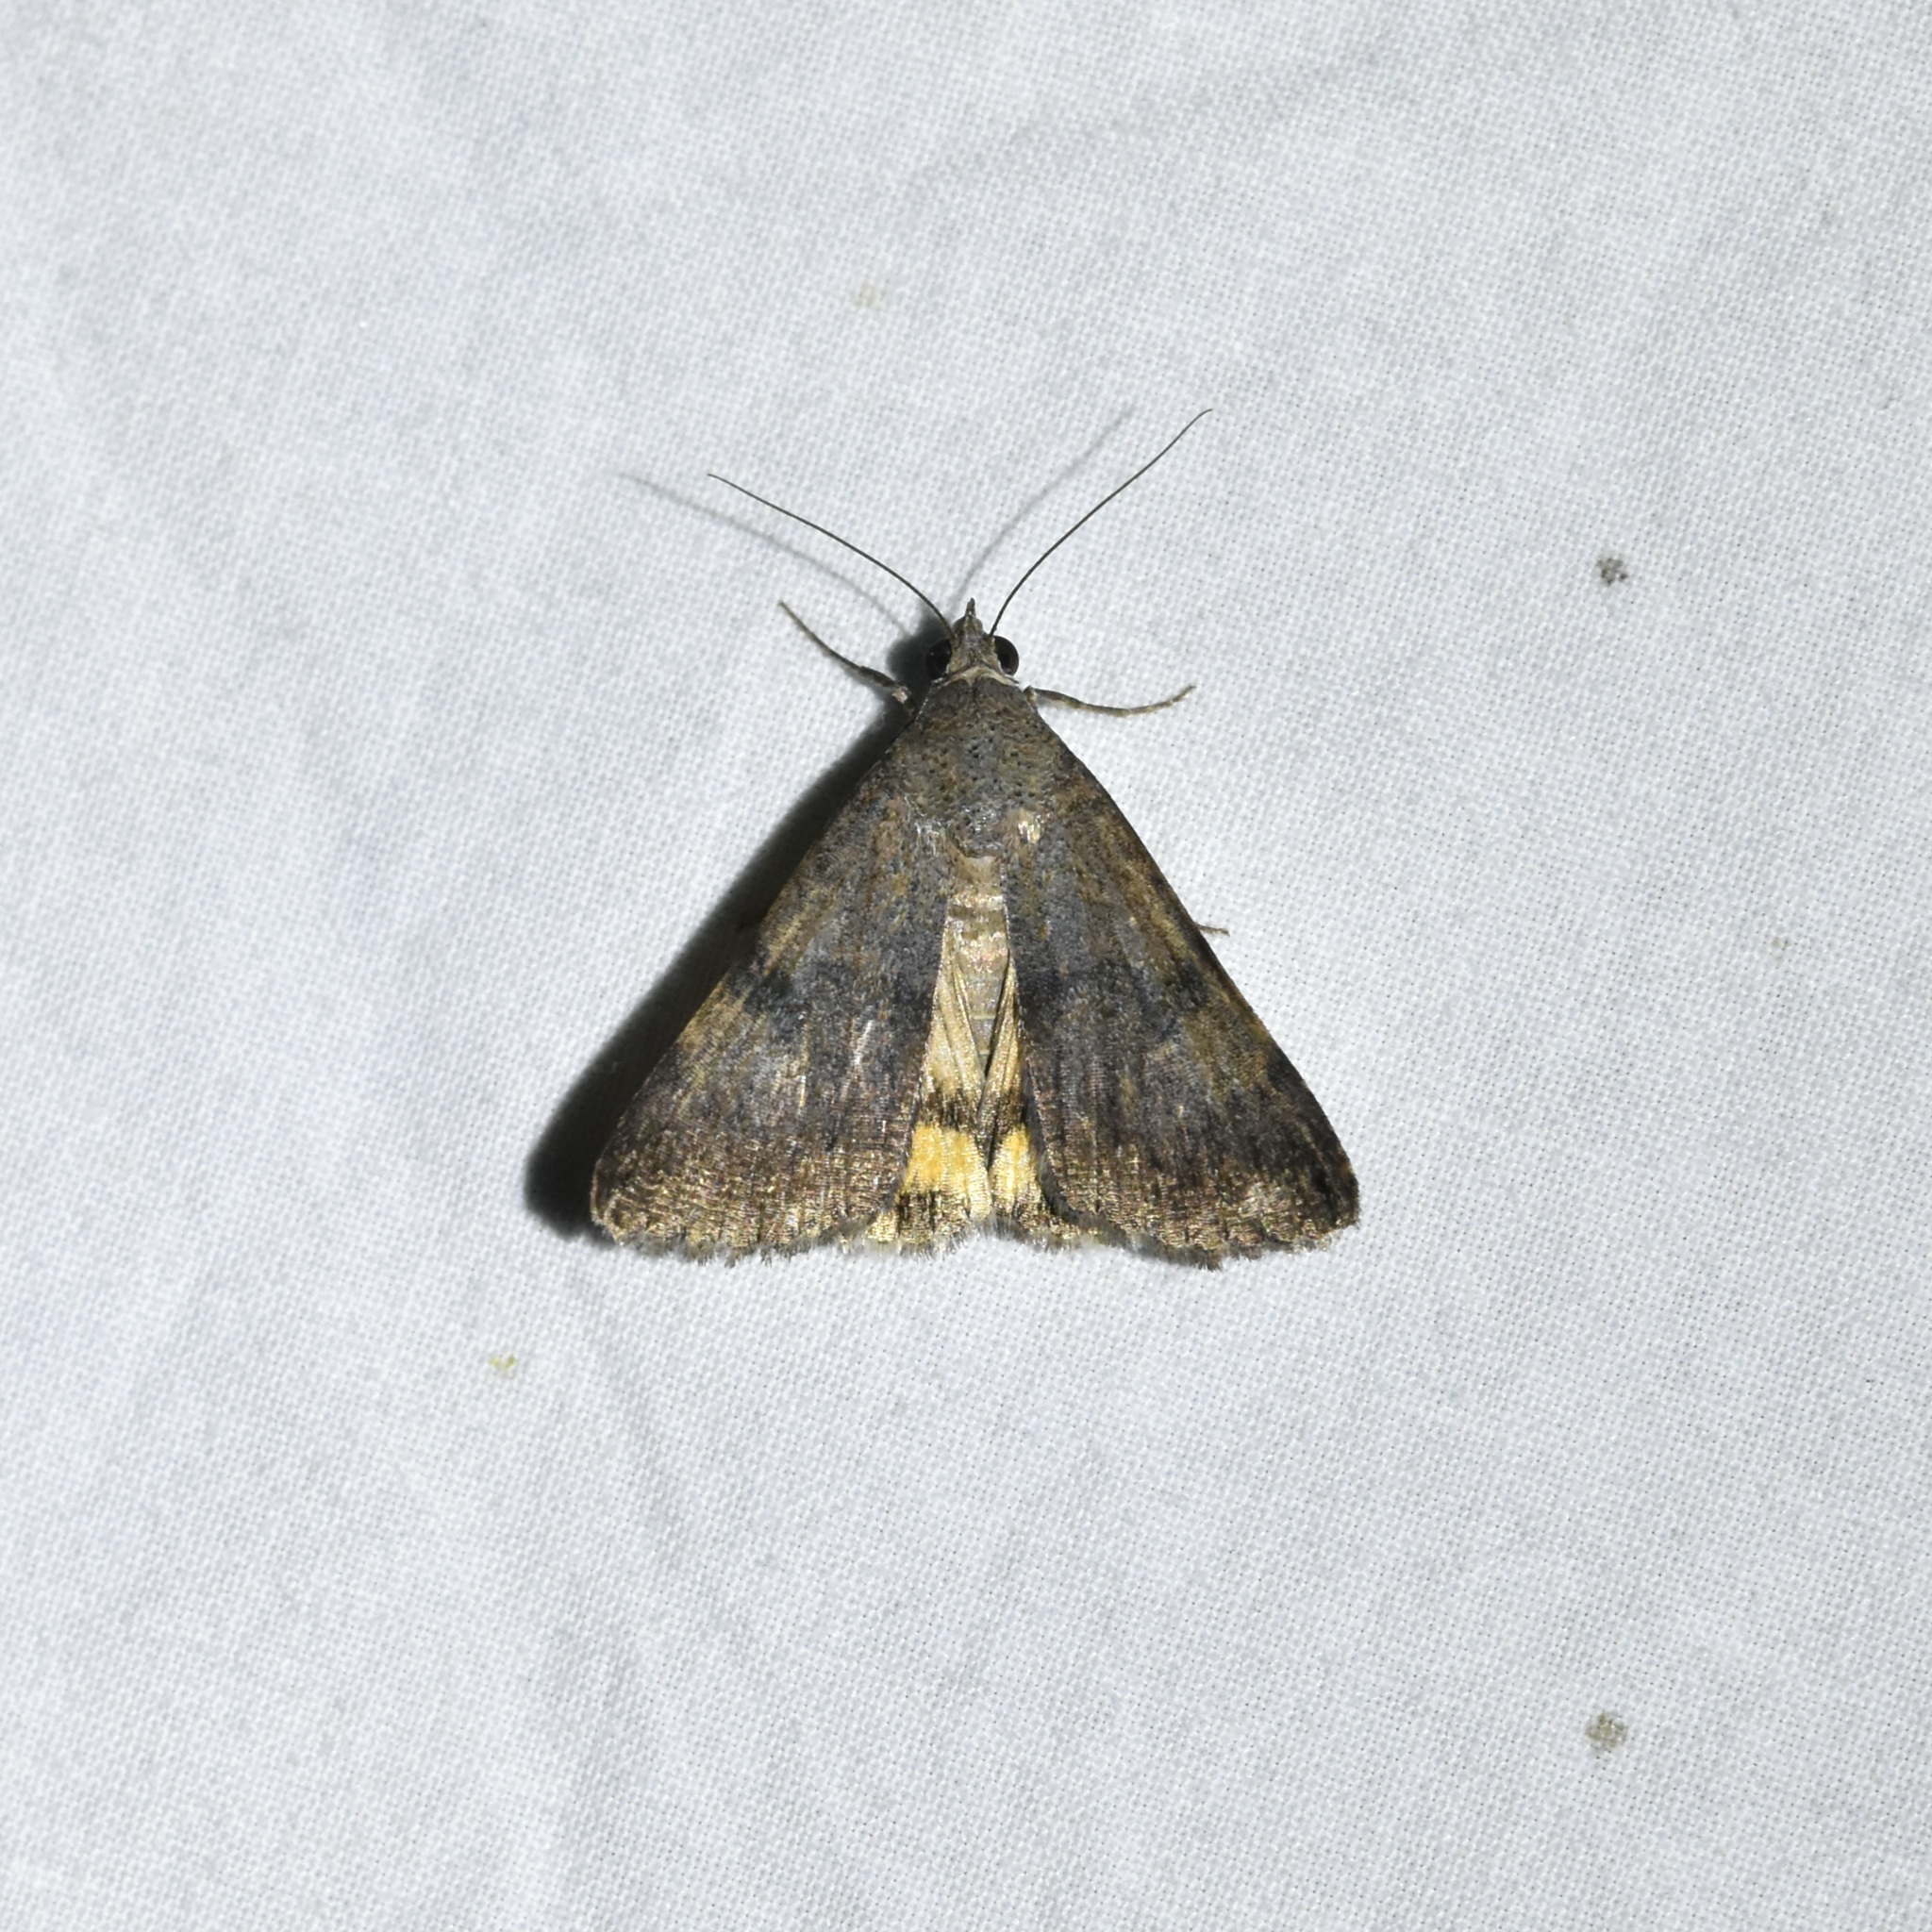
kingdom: Animalia
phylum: Arthropoda
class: Insecta
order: Lepidoptera
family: Erebidae
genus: Bulia
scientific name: Bulia deducta
